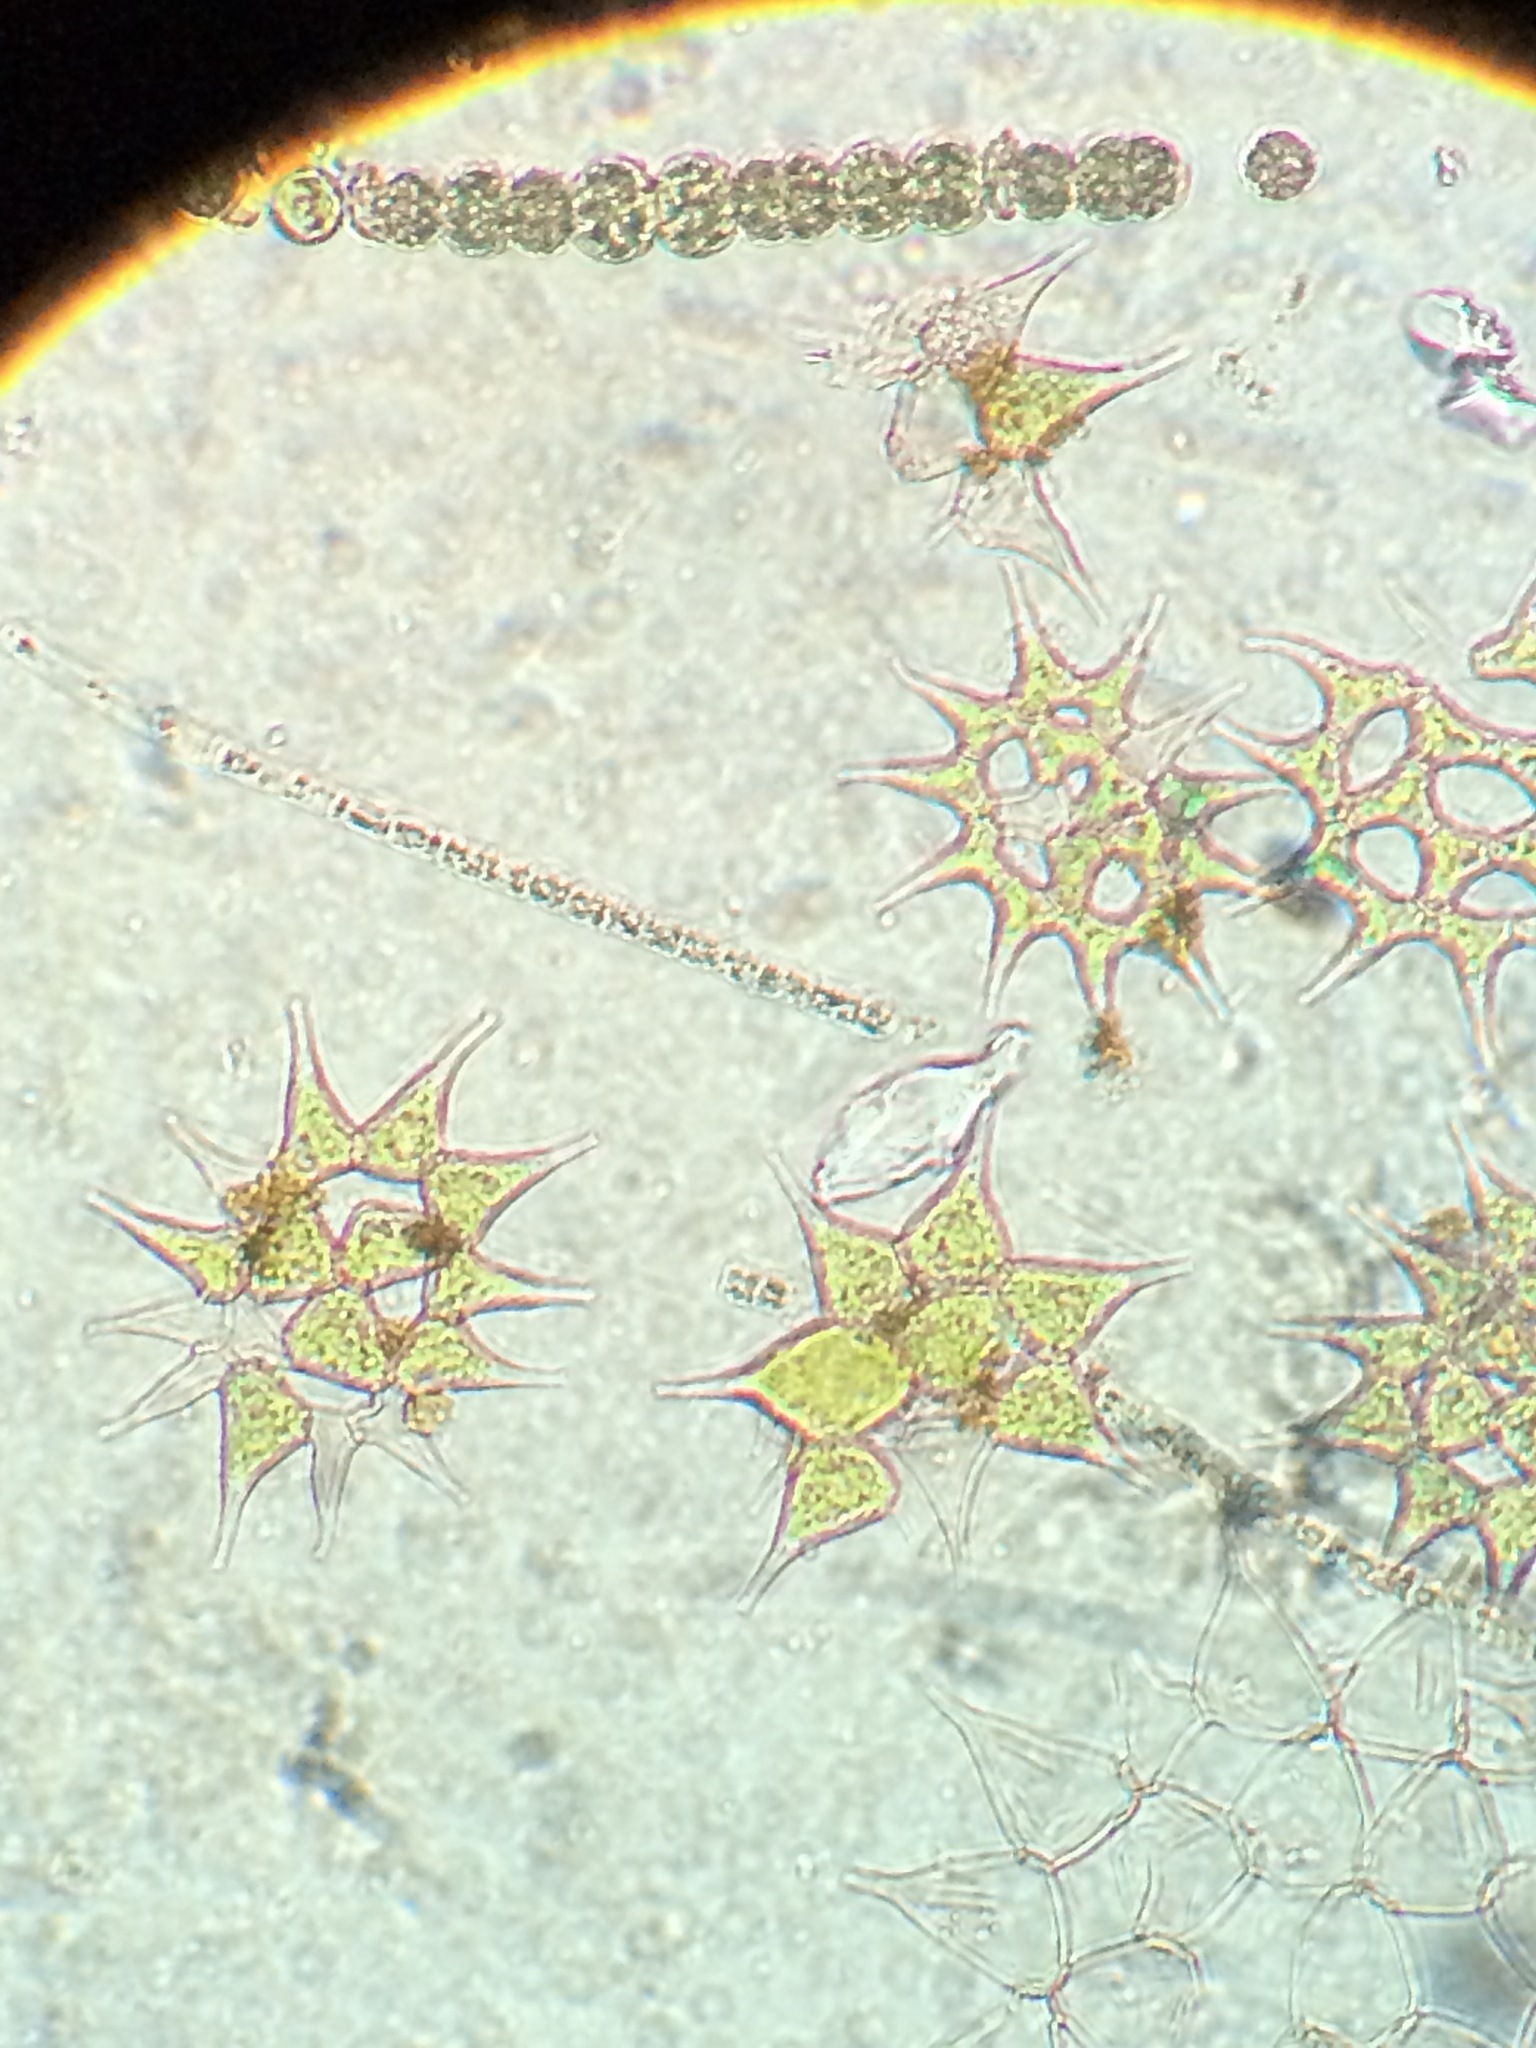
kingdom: Plantae
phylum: Chlorophyta
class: Chlorophyceae
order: Sphaeropleales
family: Hydrodictyaceae
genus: Monactinus
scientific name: Monactinus simplex
